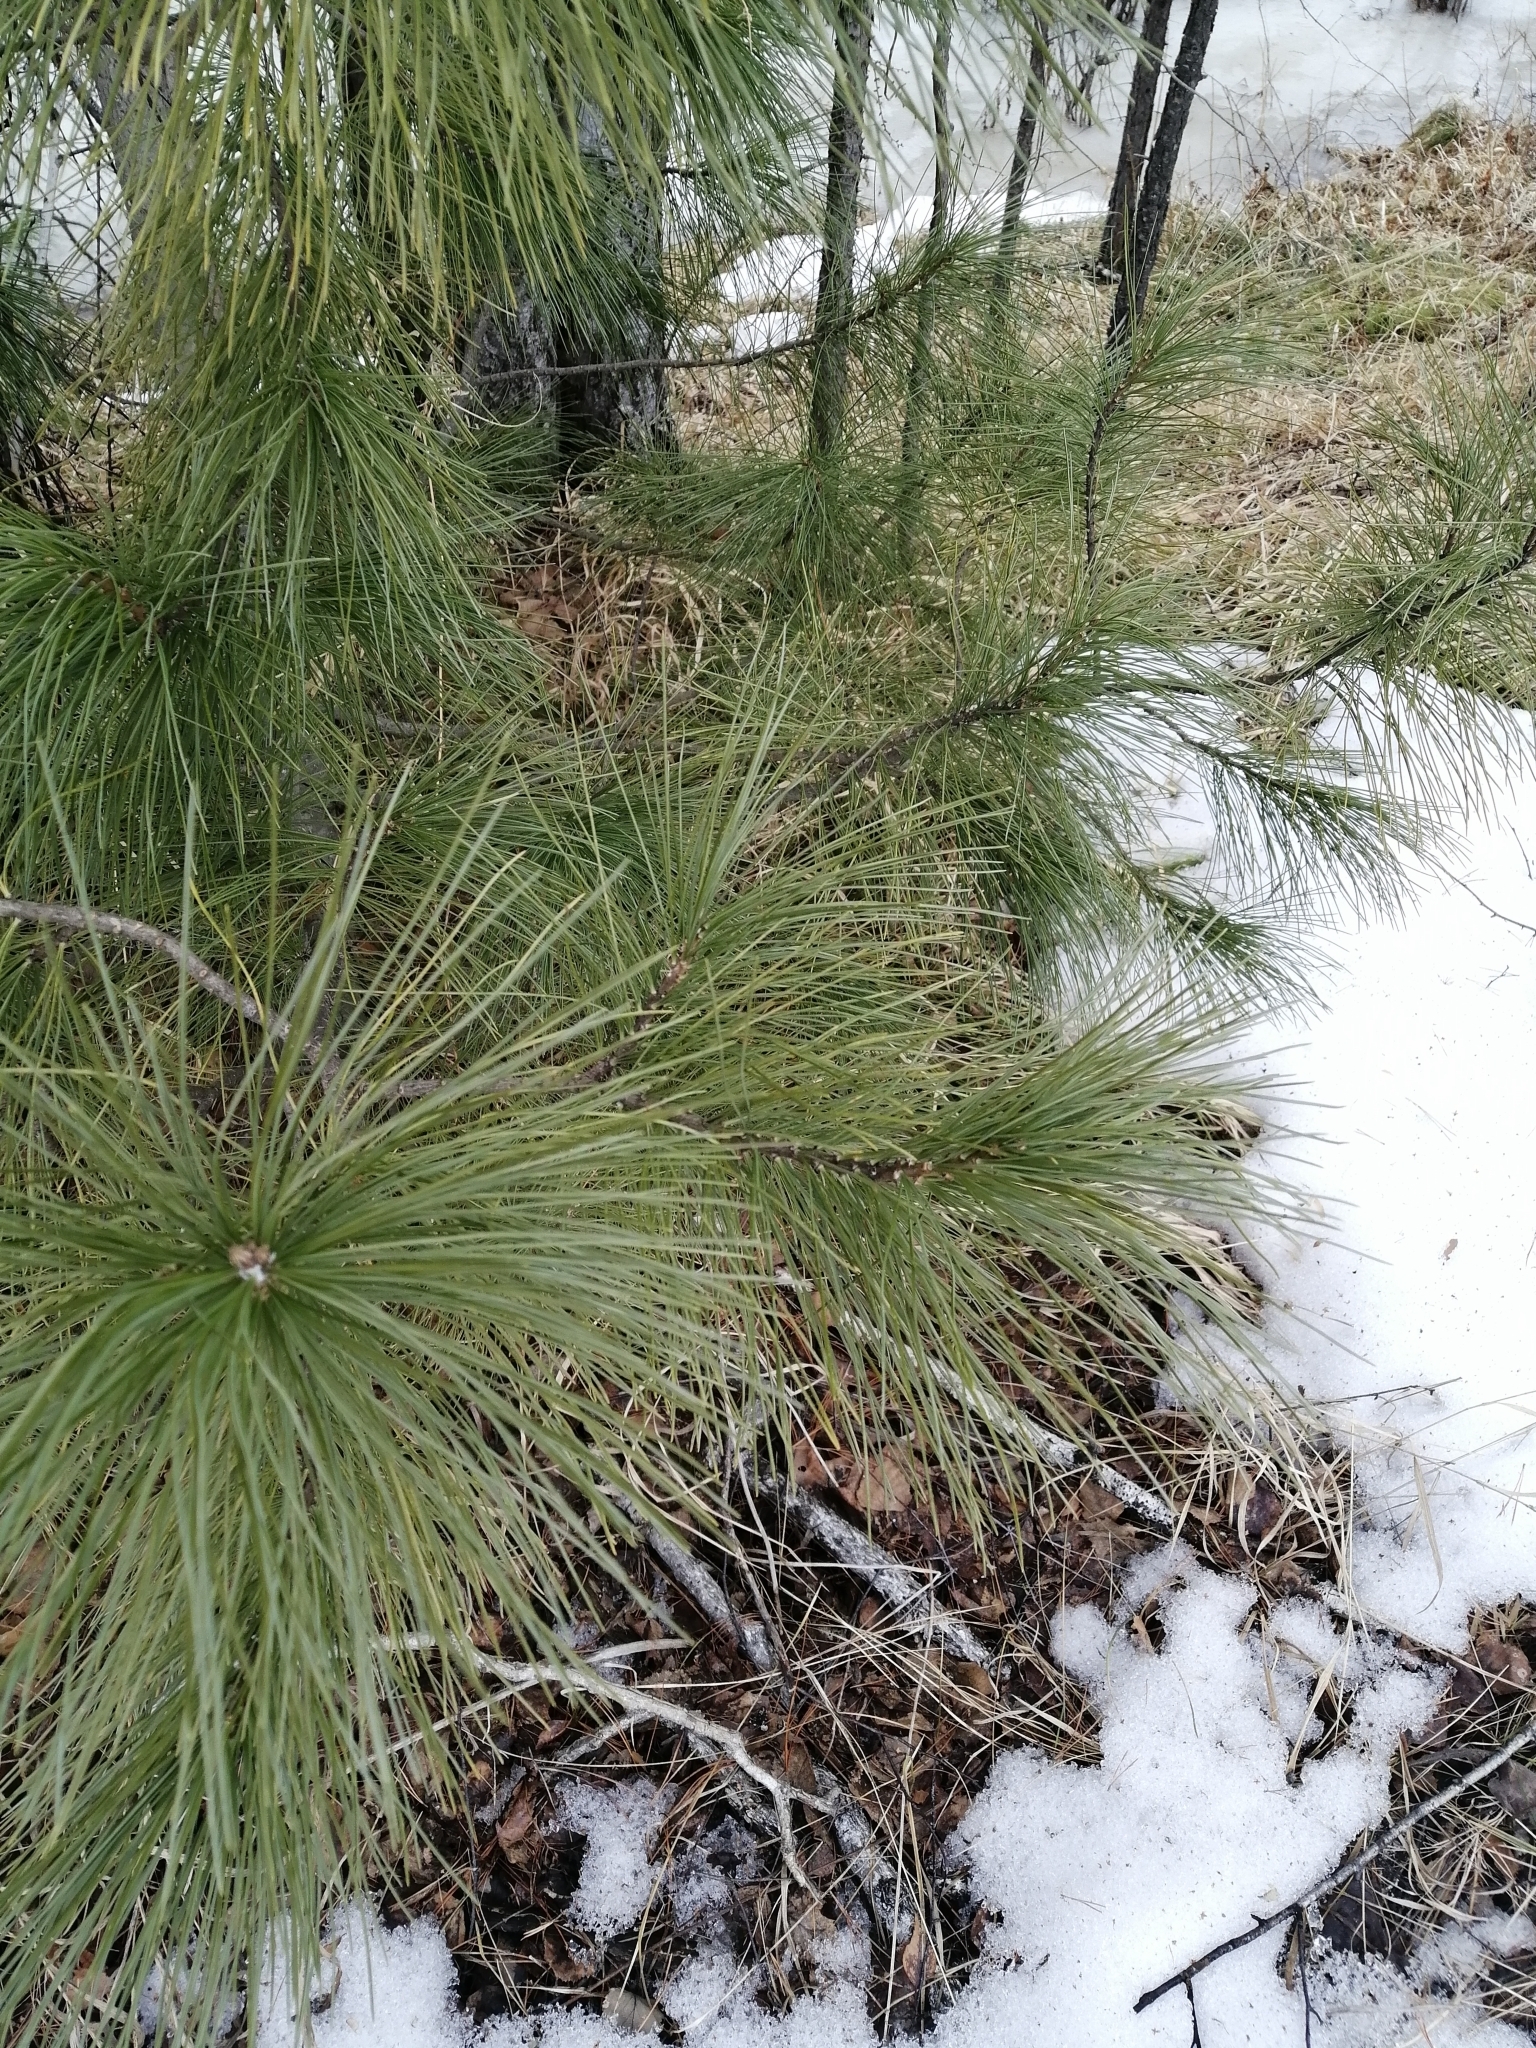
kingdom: Plantae
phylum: Tracheophyta
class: Pinopsida
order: Pinales
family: Pinaceae
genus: Pinus
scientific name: Pinus sibirica
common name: Siberian pine
